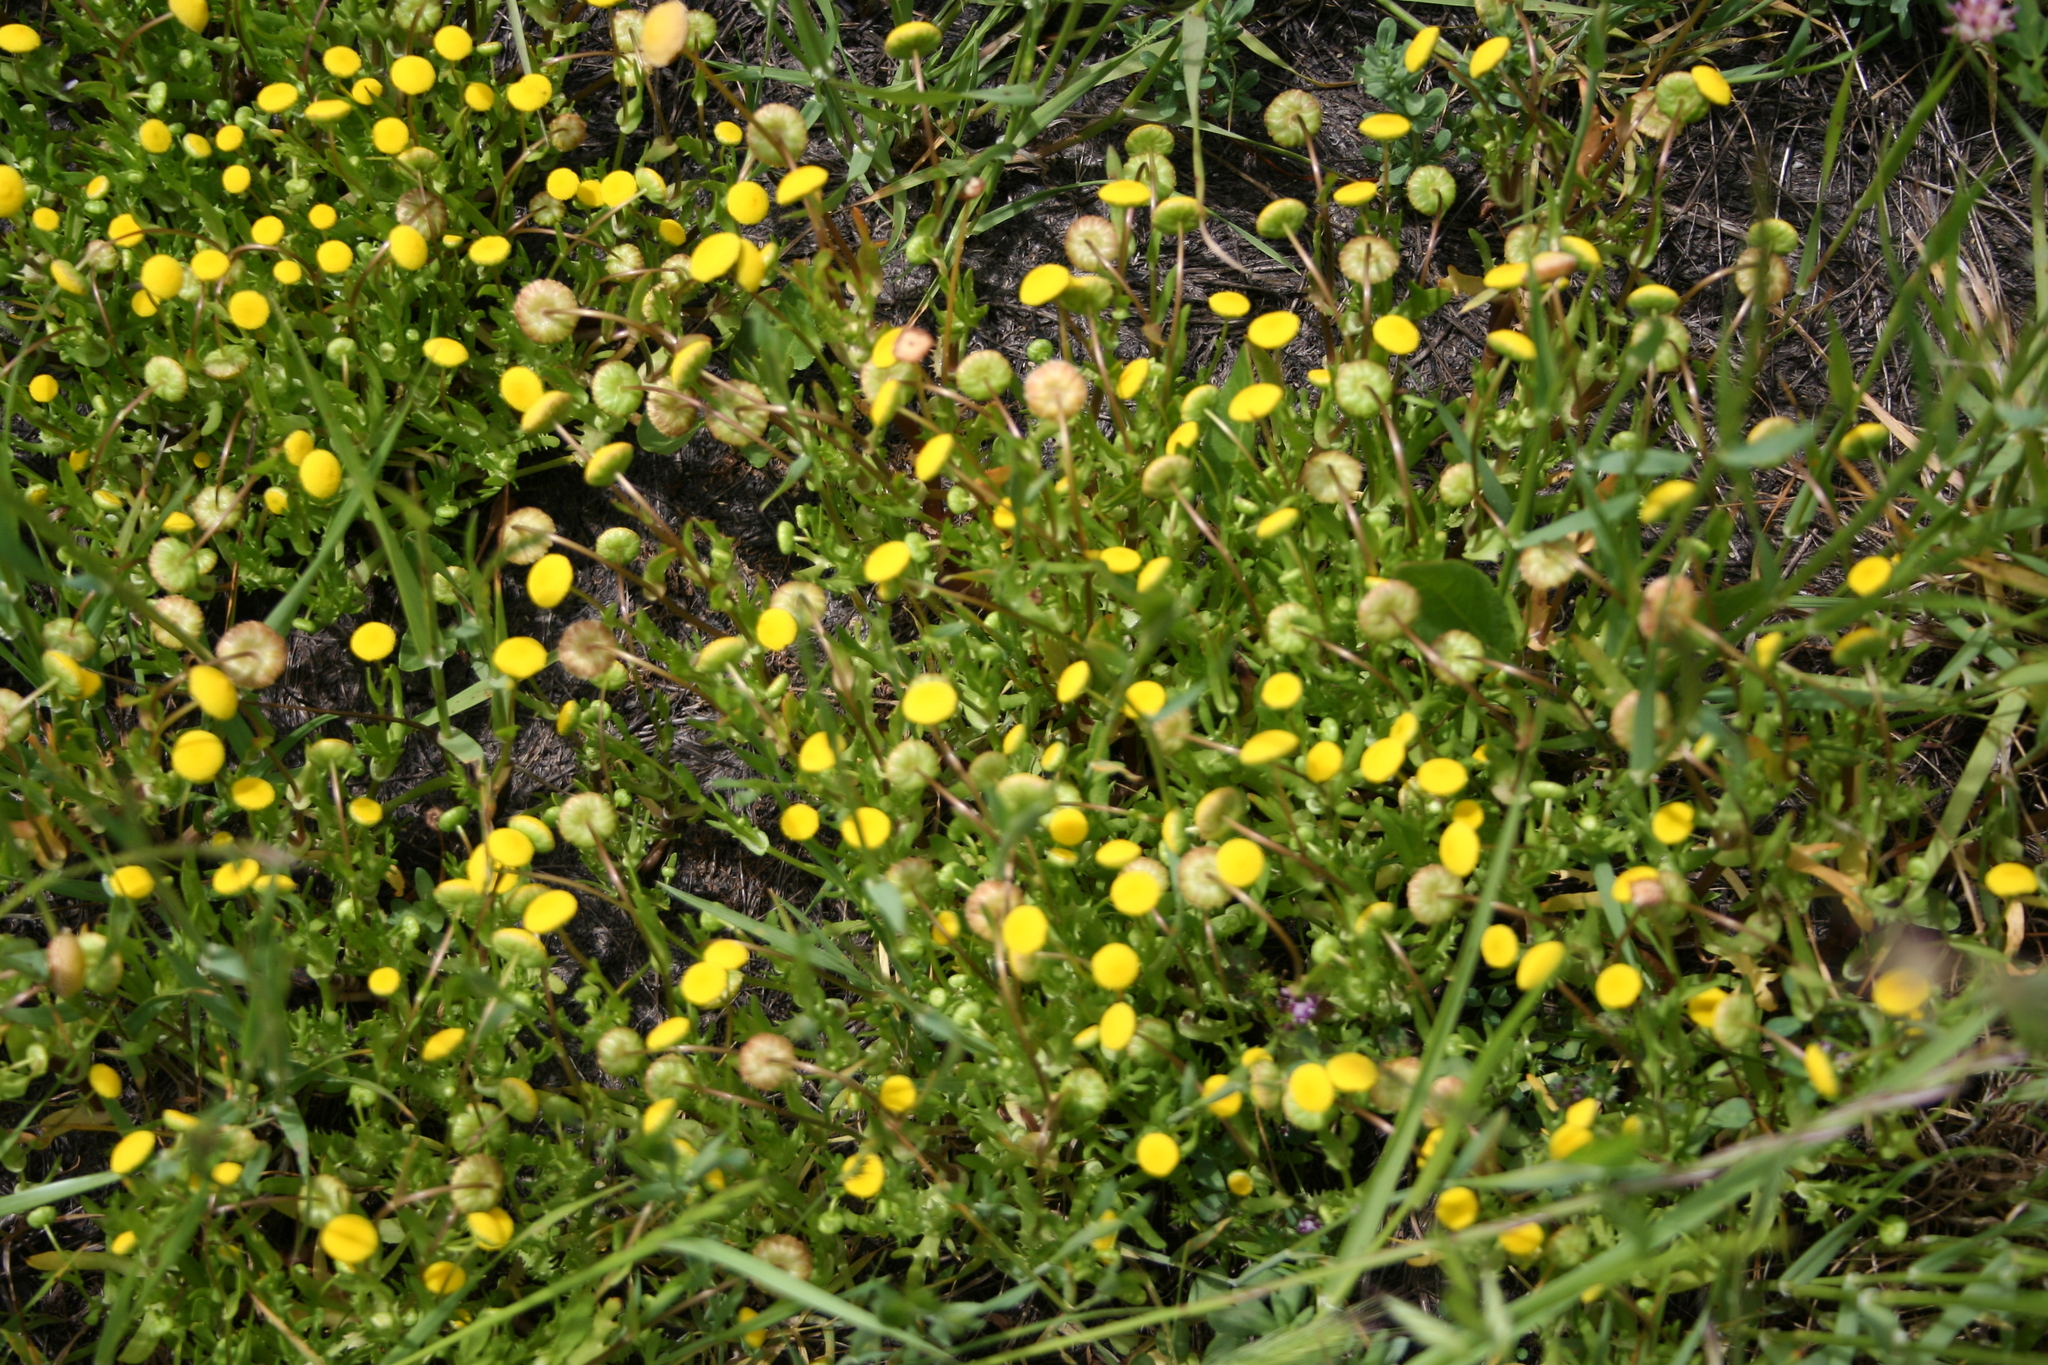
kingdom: Plantae
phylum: Tracheophyta
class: Magnoliopsida
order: Asterales
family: Asteraceae
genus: Cotula
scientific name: Cotula coronopifolia
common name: Buttonweed
